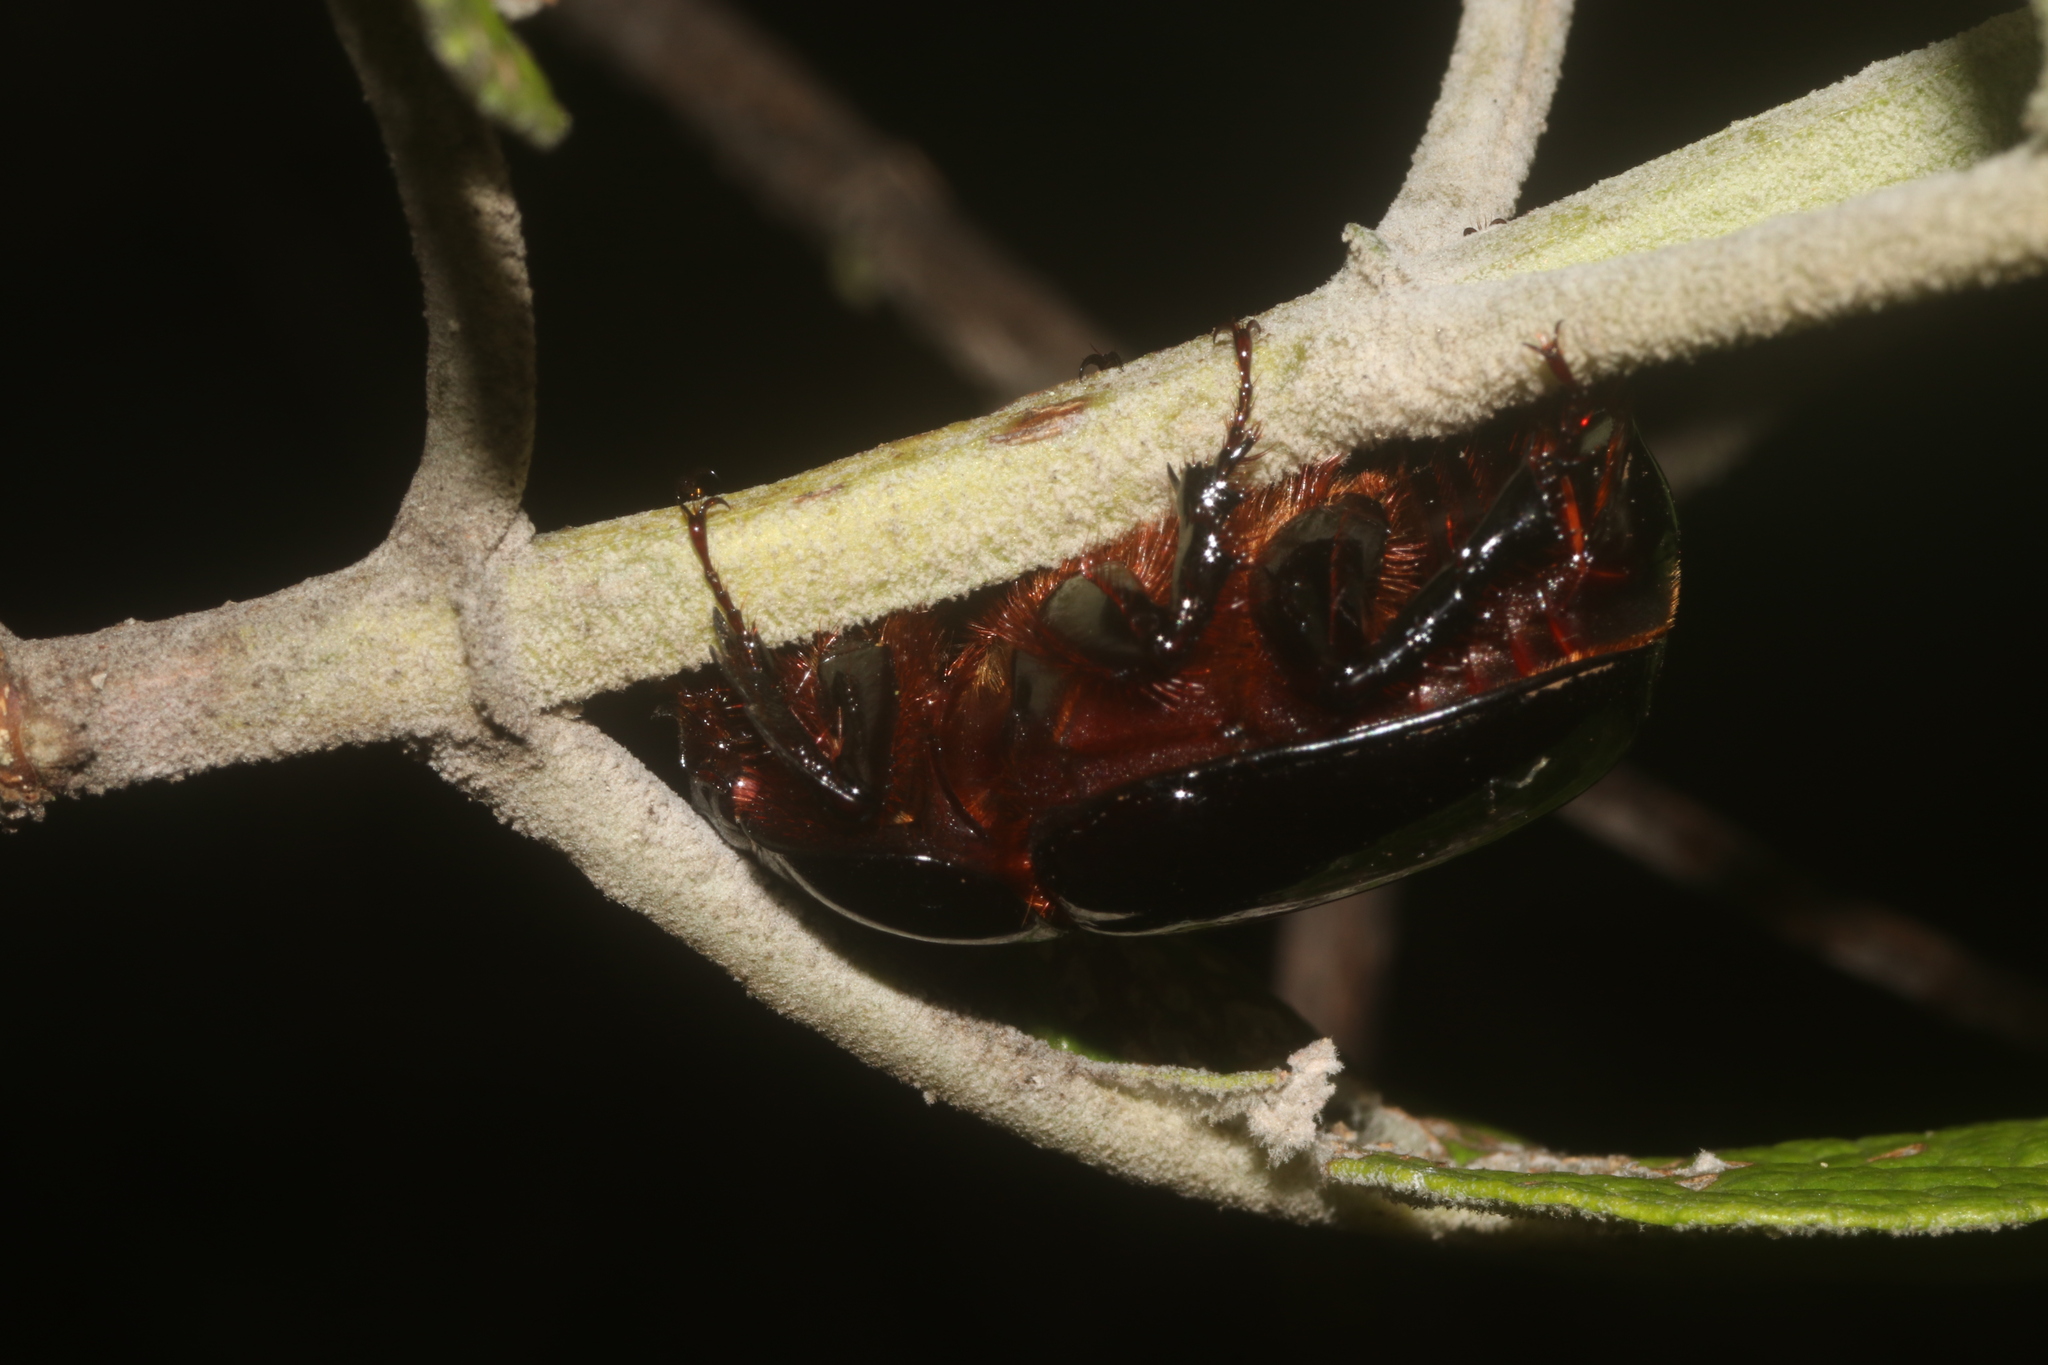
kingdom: Animalia
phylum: Arthropoda
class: Insecta
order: Coleoptera
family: Scarabaeidae
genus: Xyloryctes
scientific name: Xyloryctes corniger
